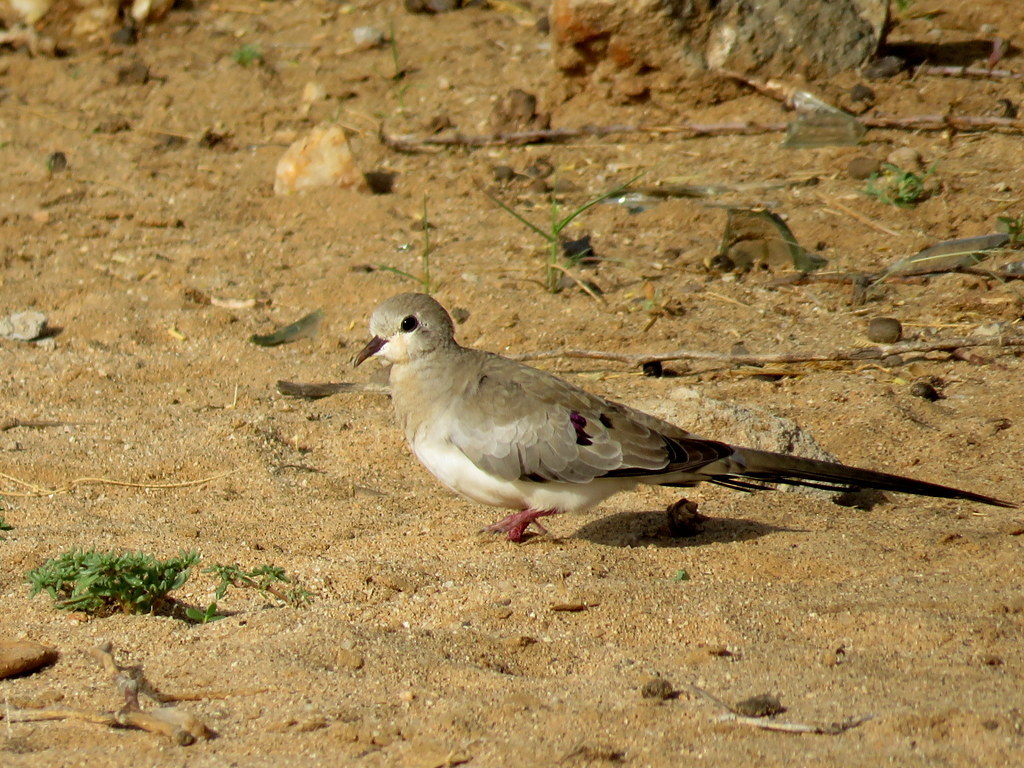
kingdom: Animalia
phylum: Chordata
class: Aves
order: Columbiformes
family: Columbidae
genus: Oena
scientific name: Oena capensis
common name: Namaqua dove
